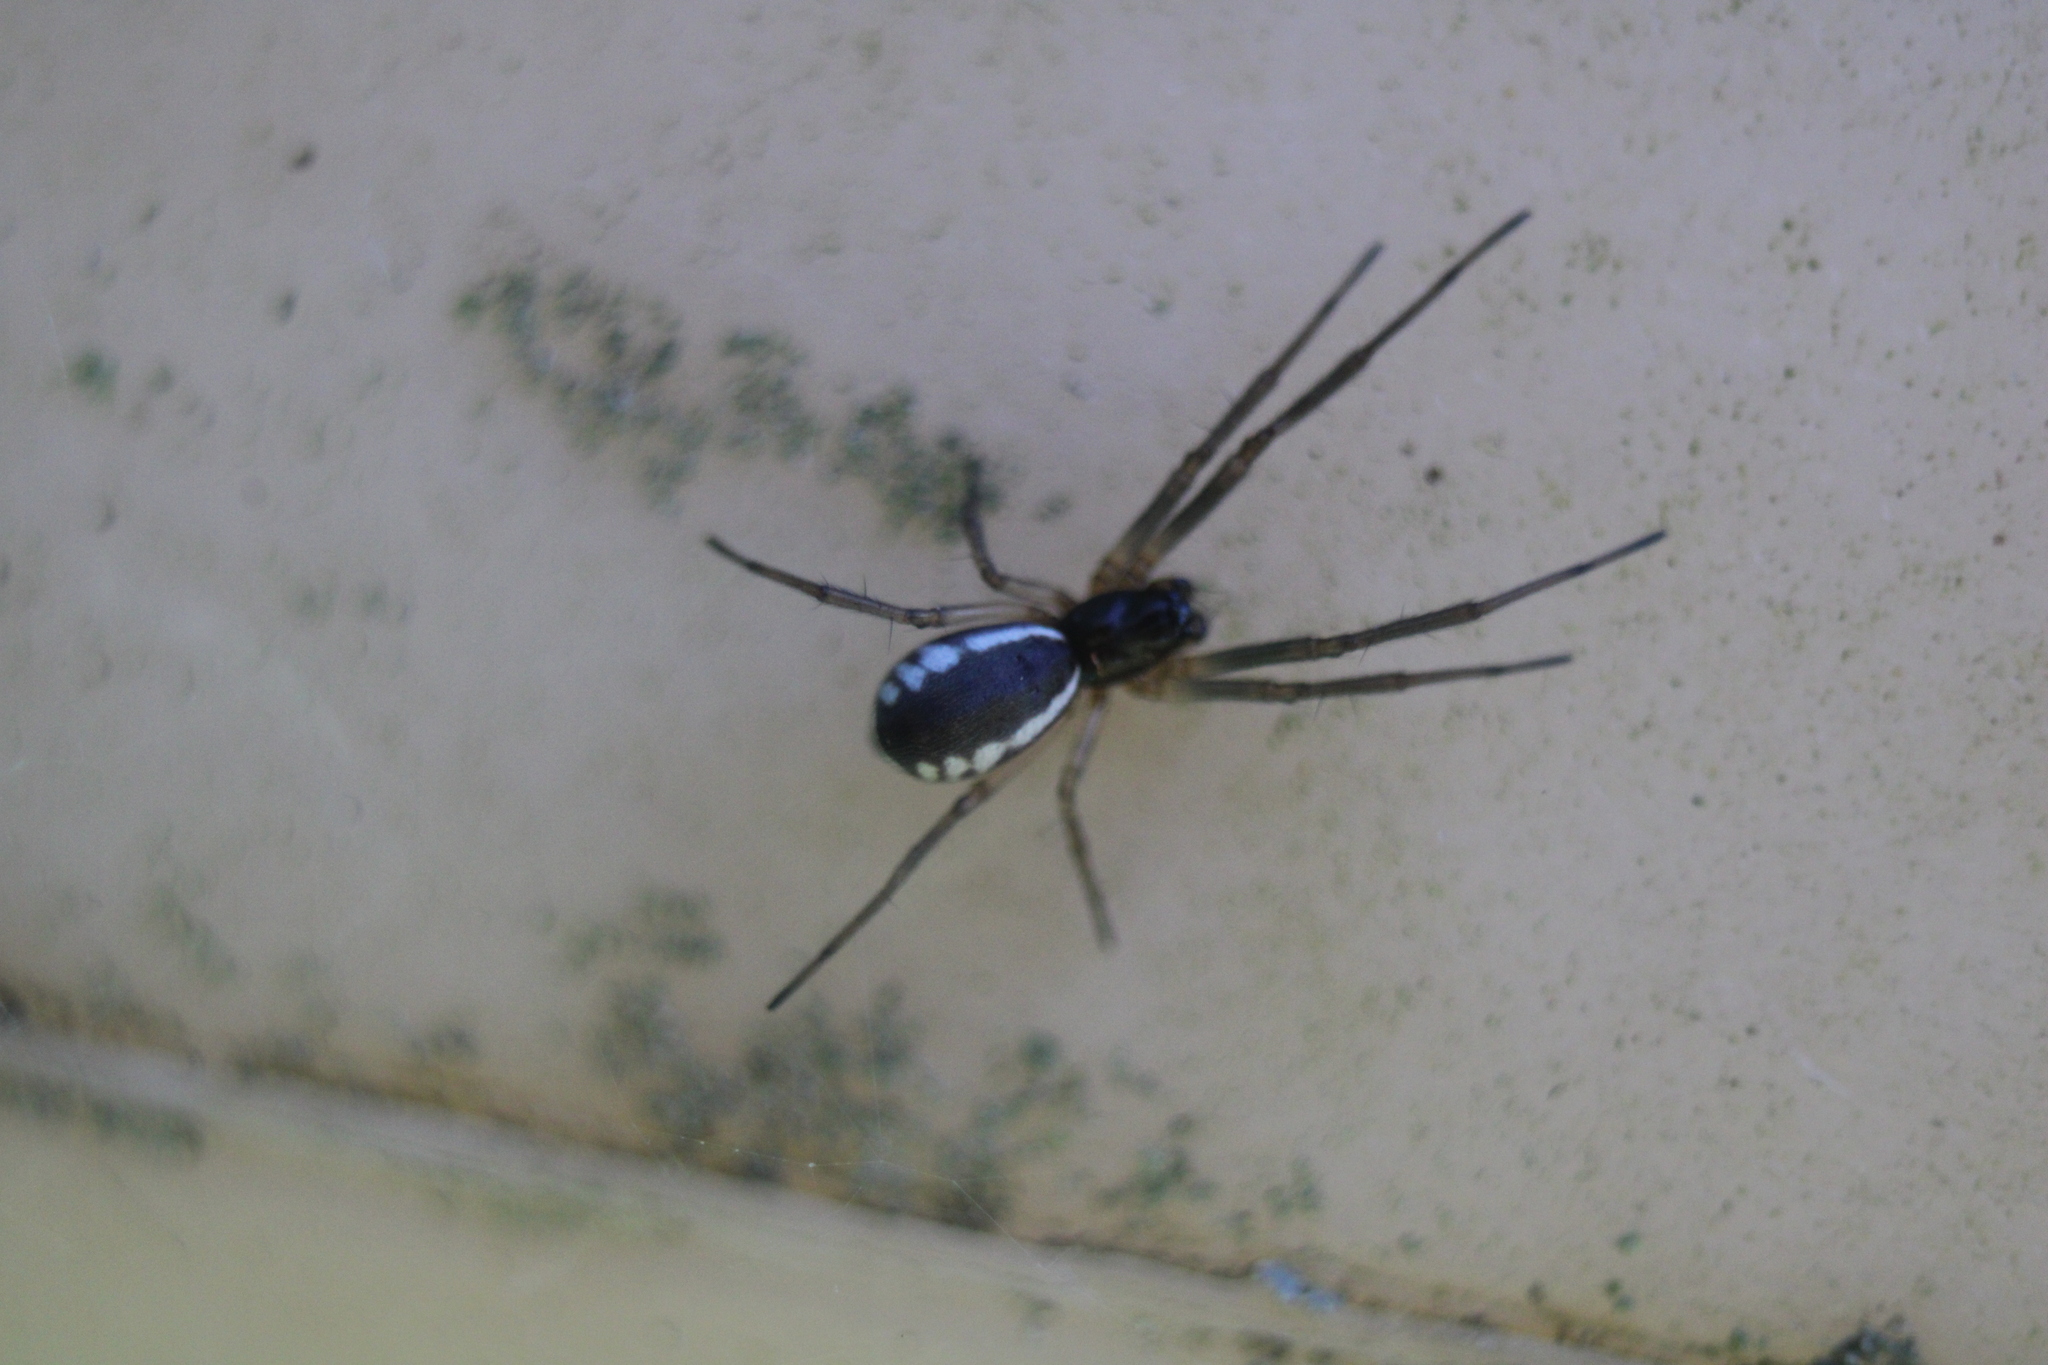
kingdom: Animalia
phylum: Arthropoda
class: Arachnida
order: Araneae
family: Linyphiidae
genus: Frontinella
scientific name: Frontinella pyramitela
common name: Bowl-and-doily spider
